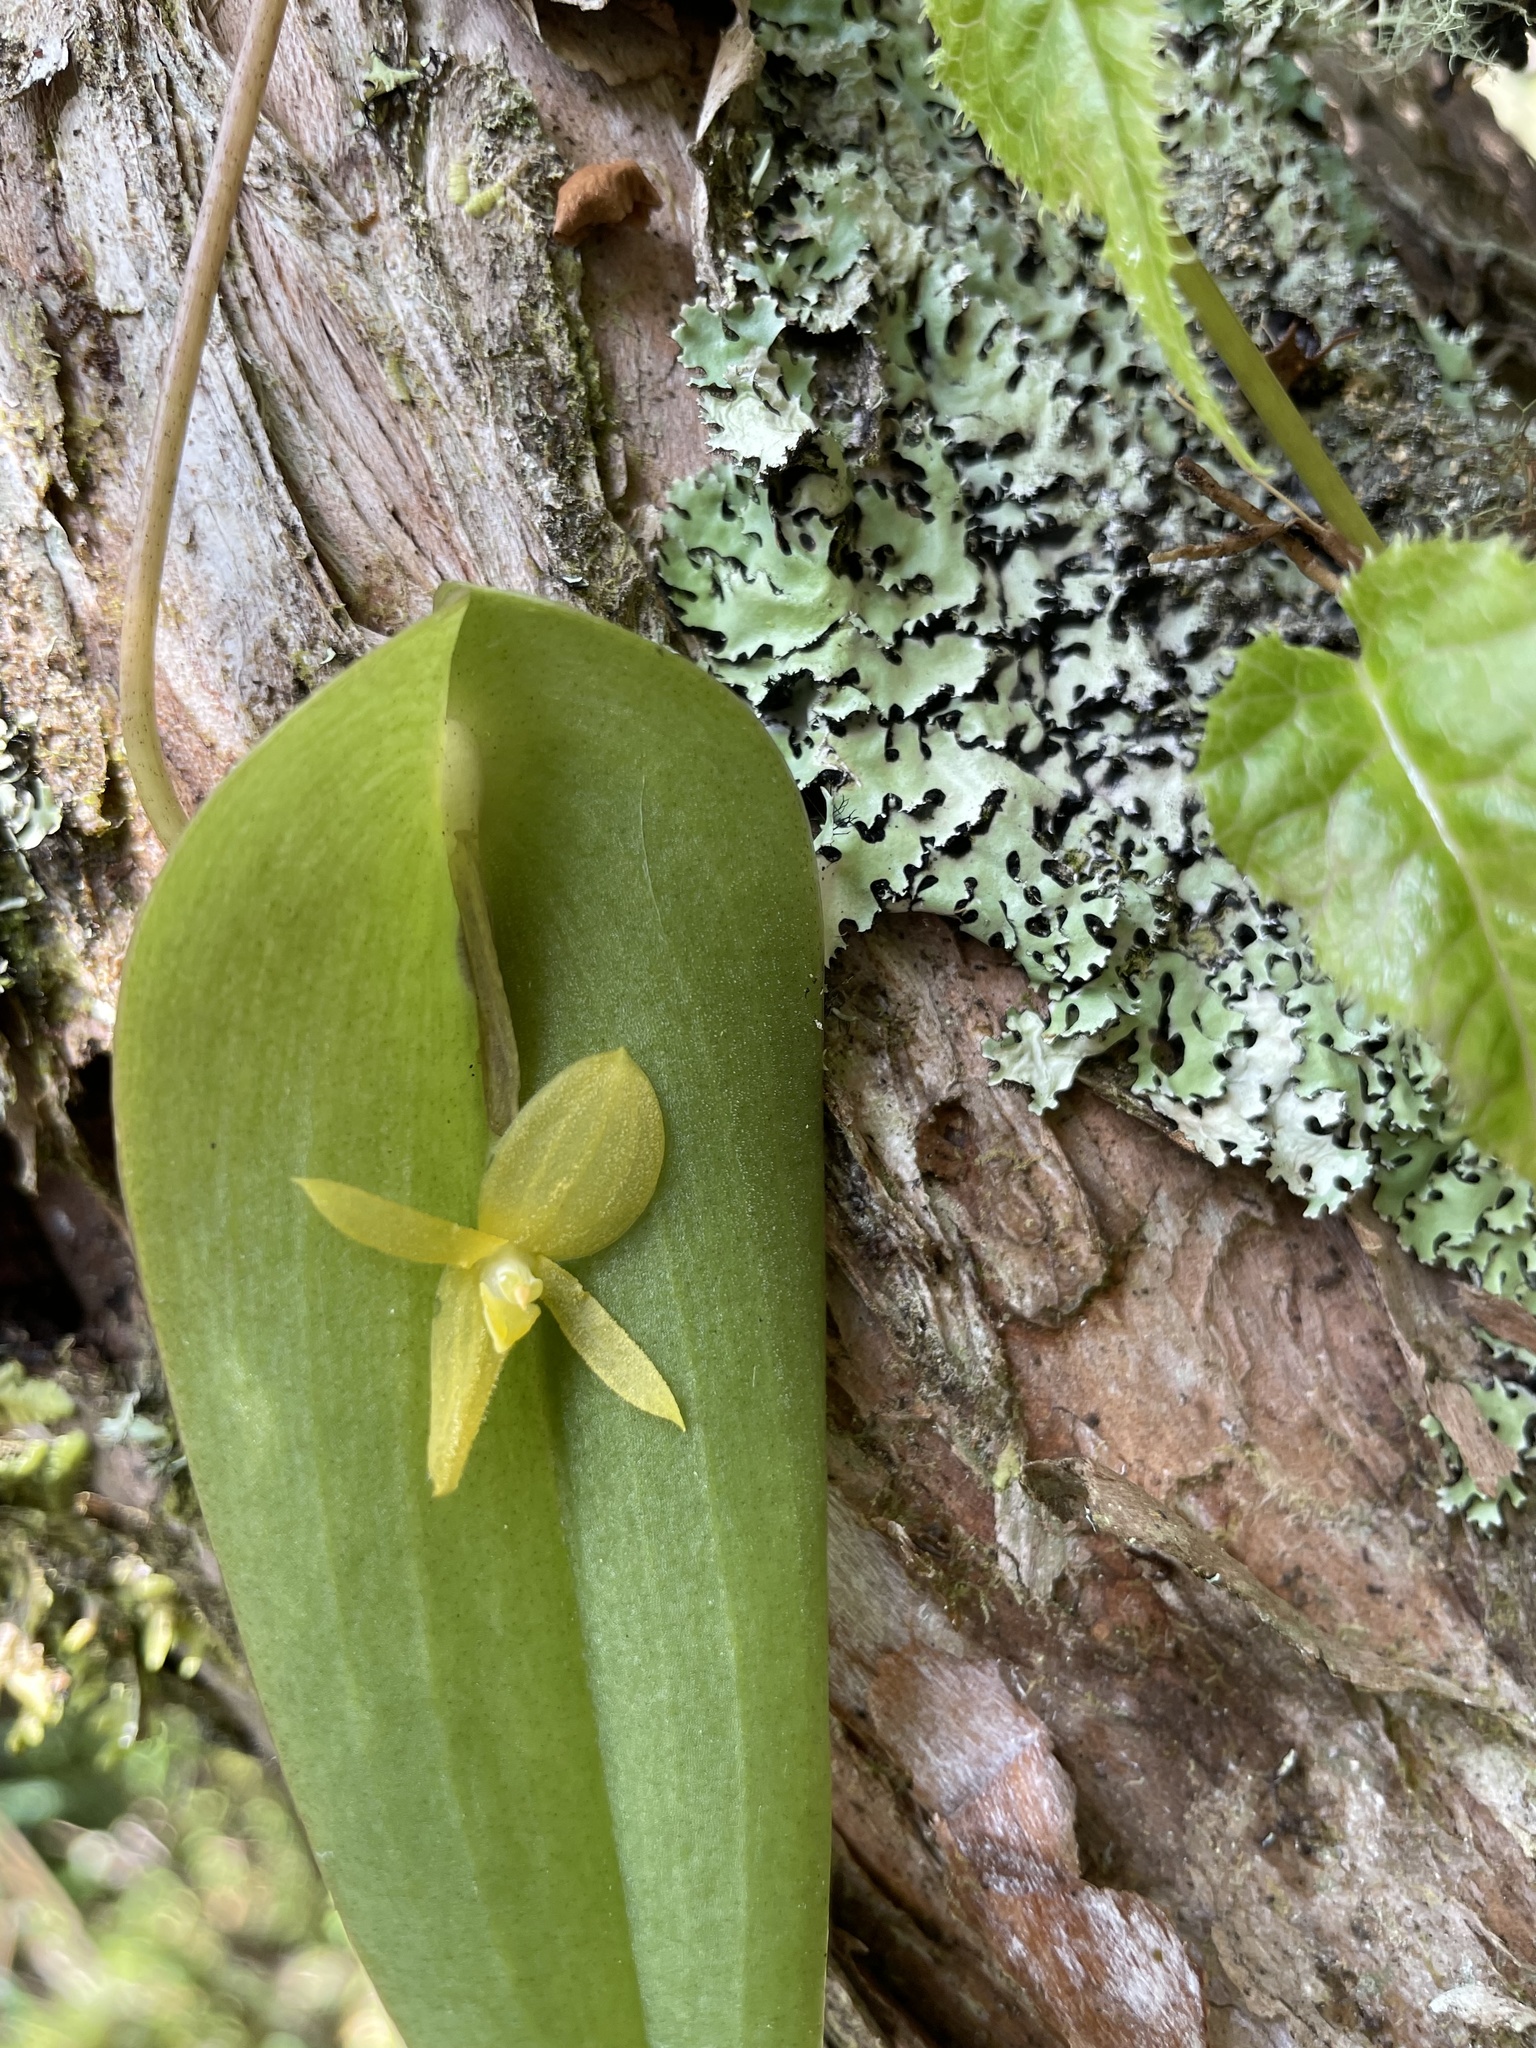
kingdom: Plantae
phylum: Tracheophyta
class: Liliopsida
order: Asparagales
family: Orchidaceae
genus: Pleurothallis
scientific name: Pleurothallis apopsis
